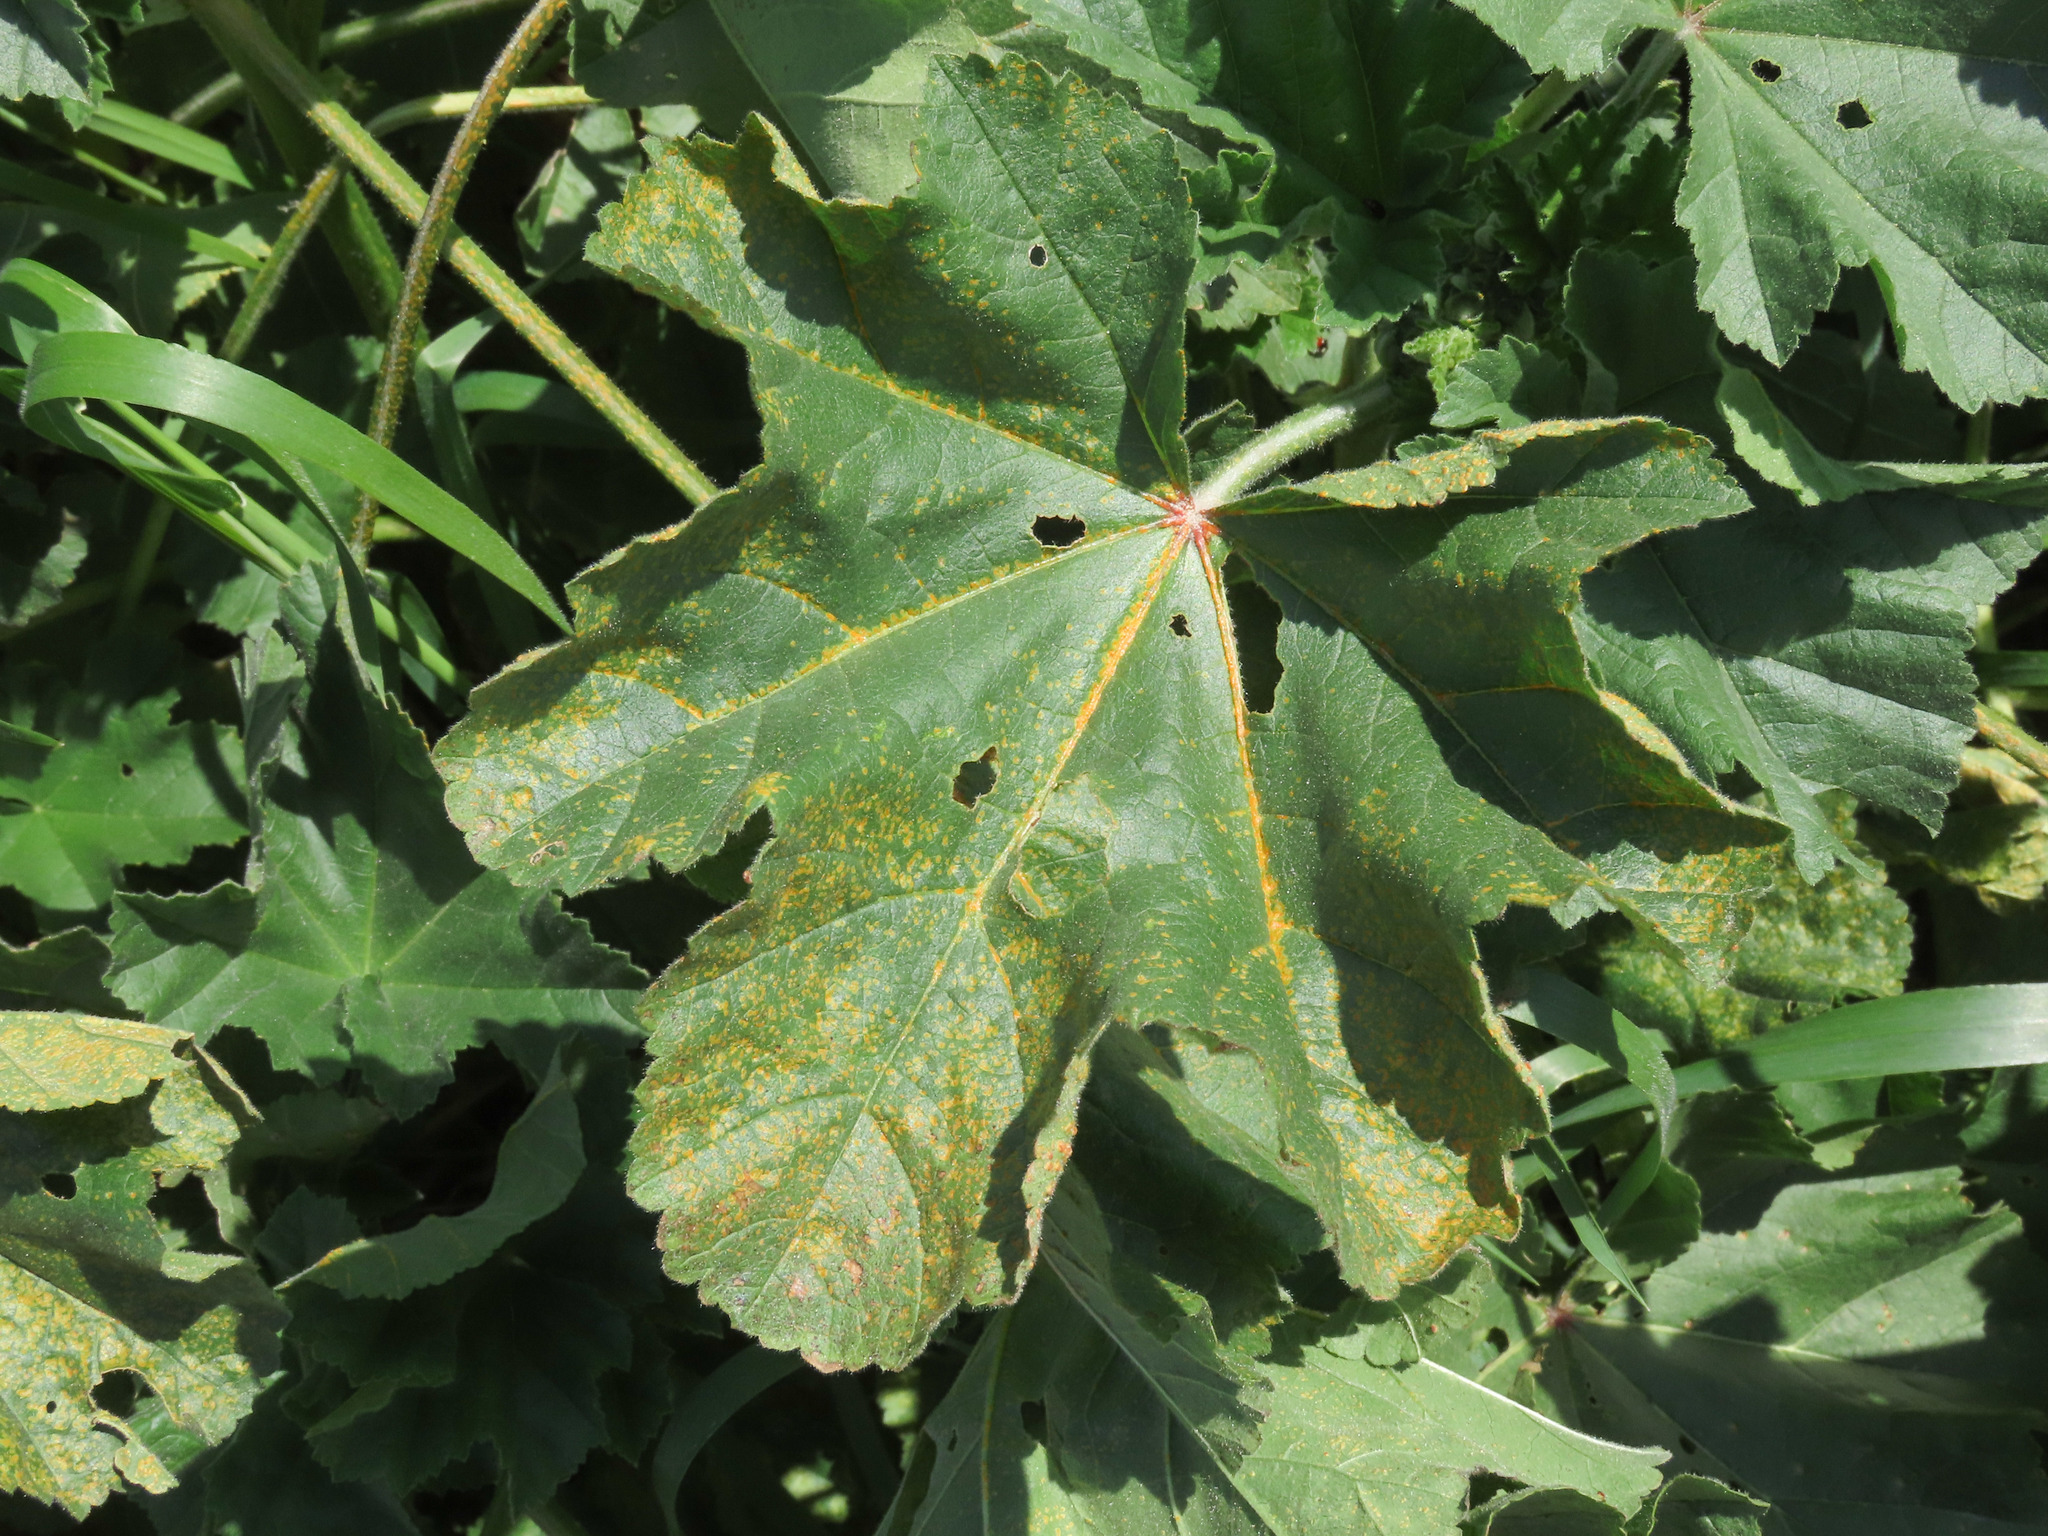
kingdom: Fungi
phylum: Basidiomycota
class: Pucciniomycetes
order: Pucciniales
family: Pucciniaceae
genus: Puccinia
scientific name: Puccinia malvacearum
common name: Hollyhock rust
